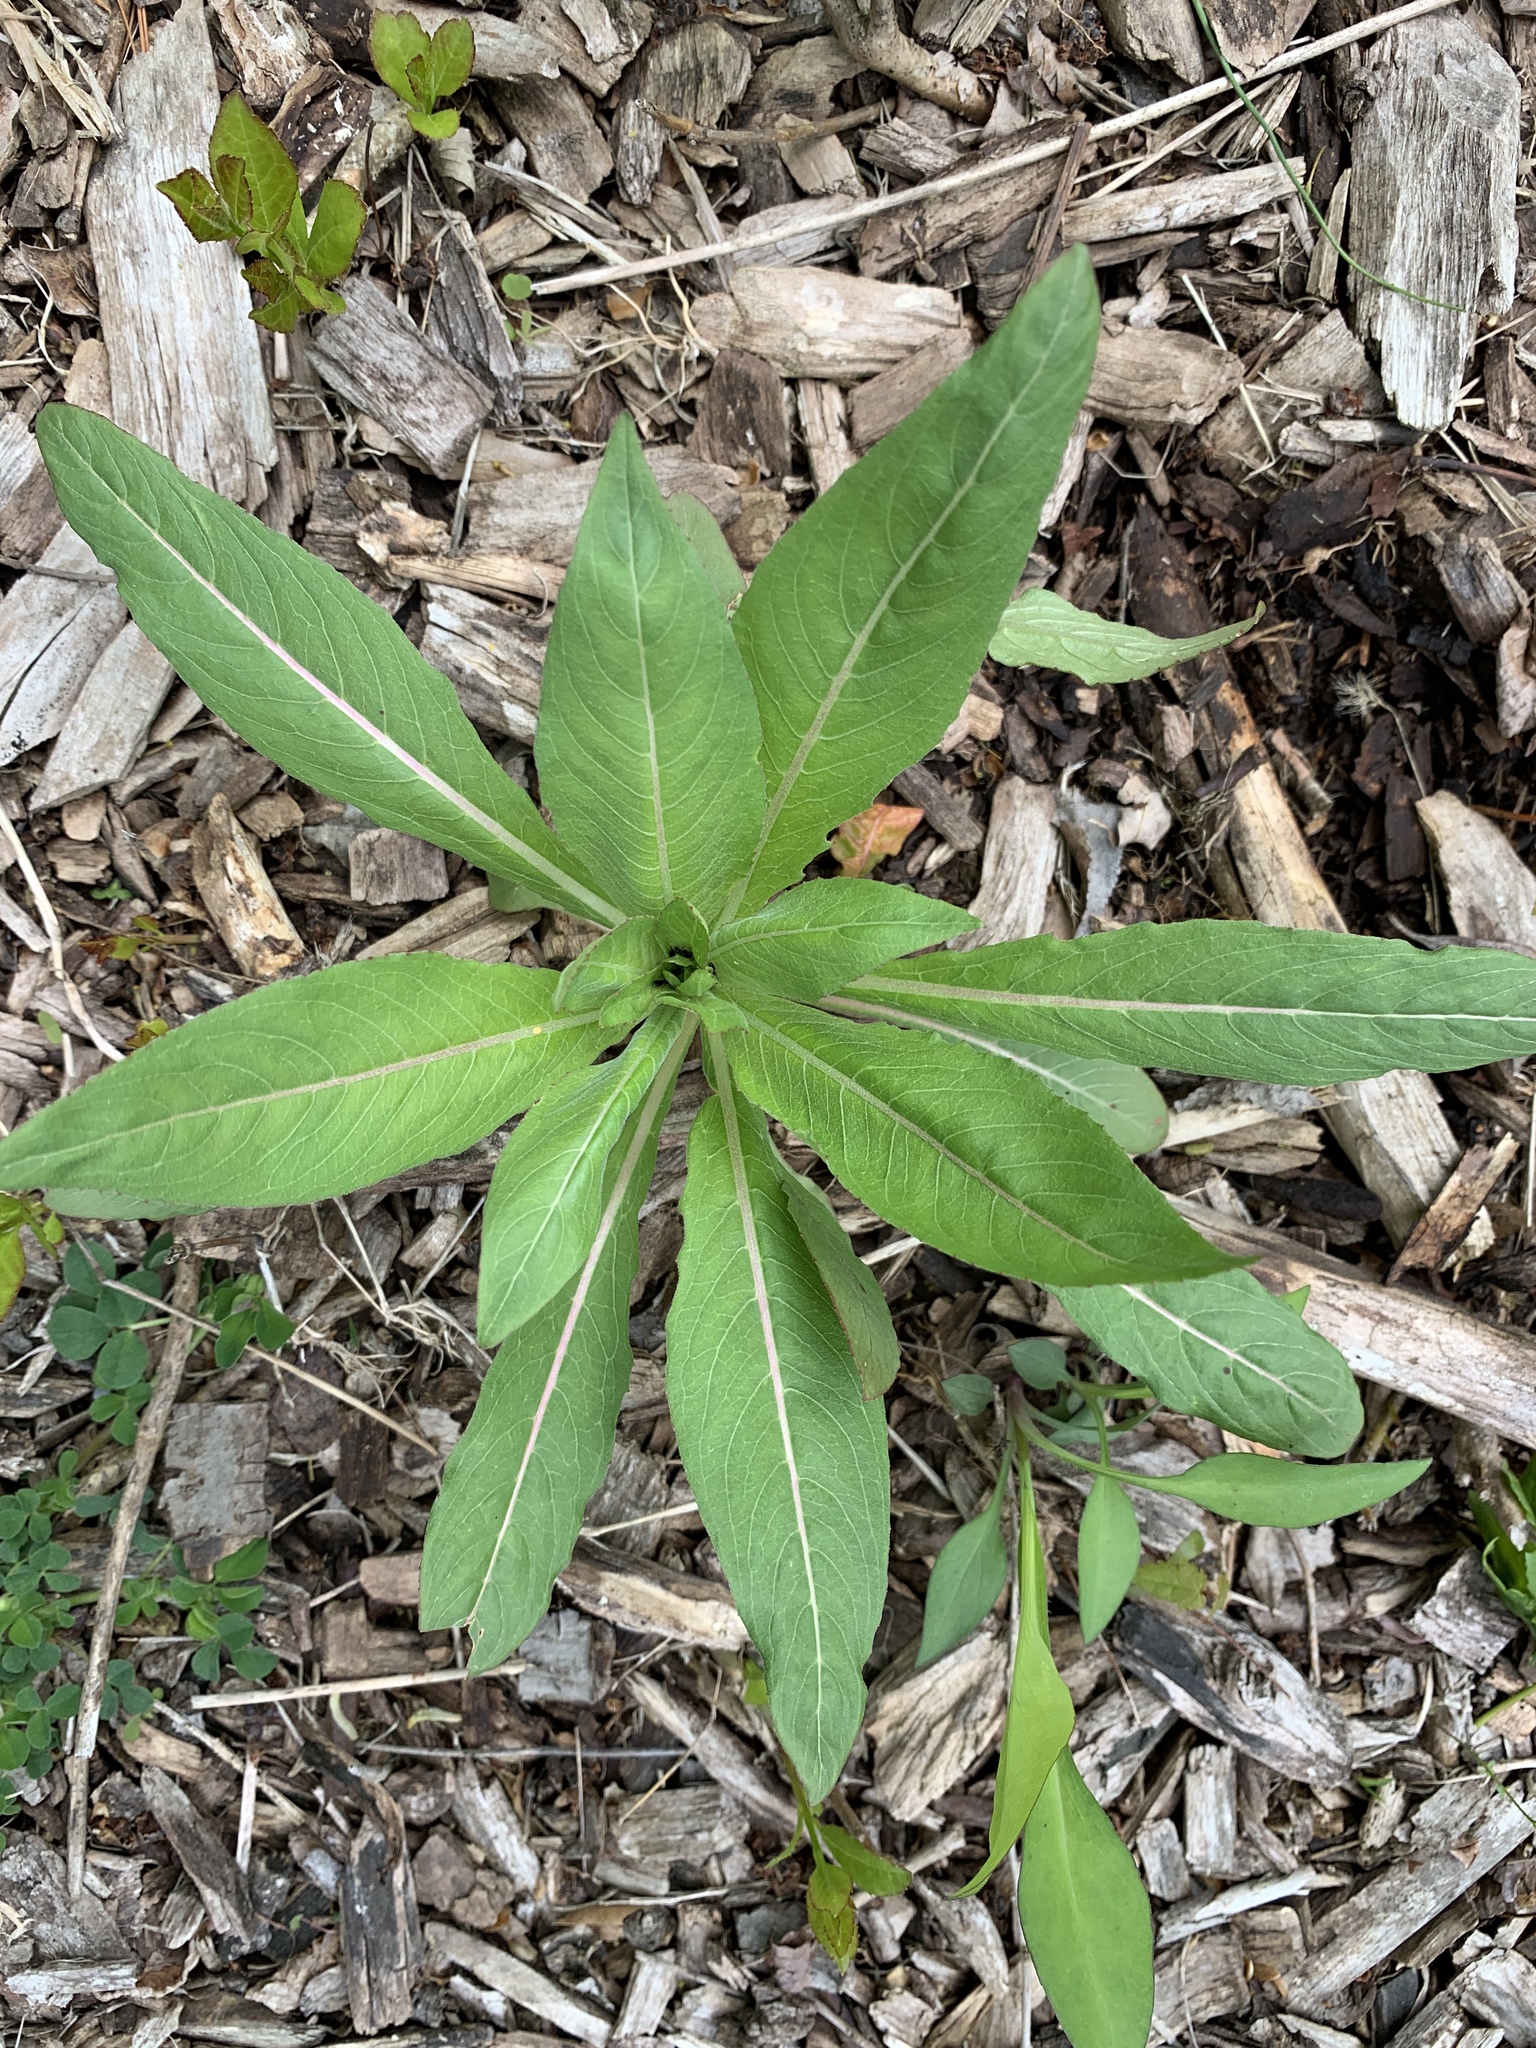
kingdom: Plantae
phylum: Tracheophyta
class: Magnoliopsida
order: Myrtales
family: Onagraceae
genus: Oenothera
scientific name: Oenothera biennis
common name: Common evening-primrose
